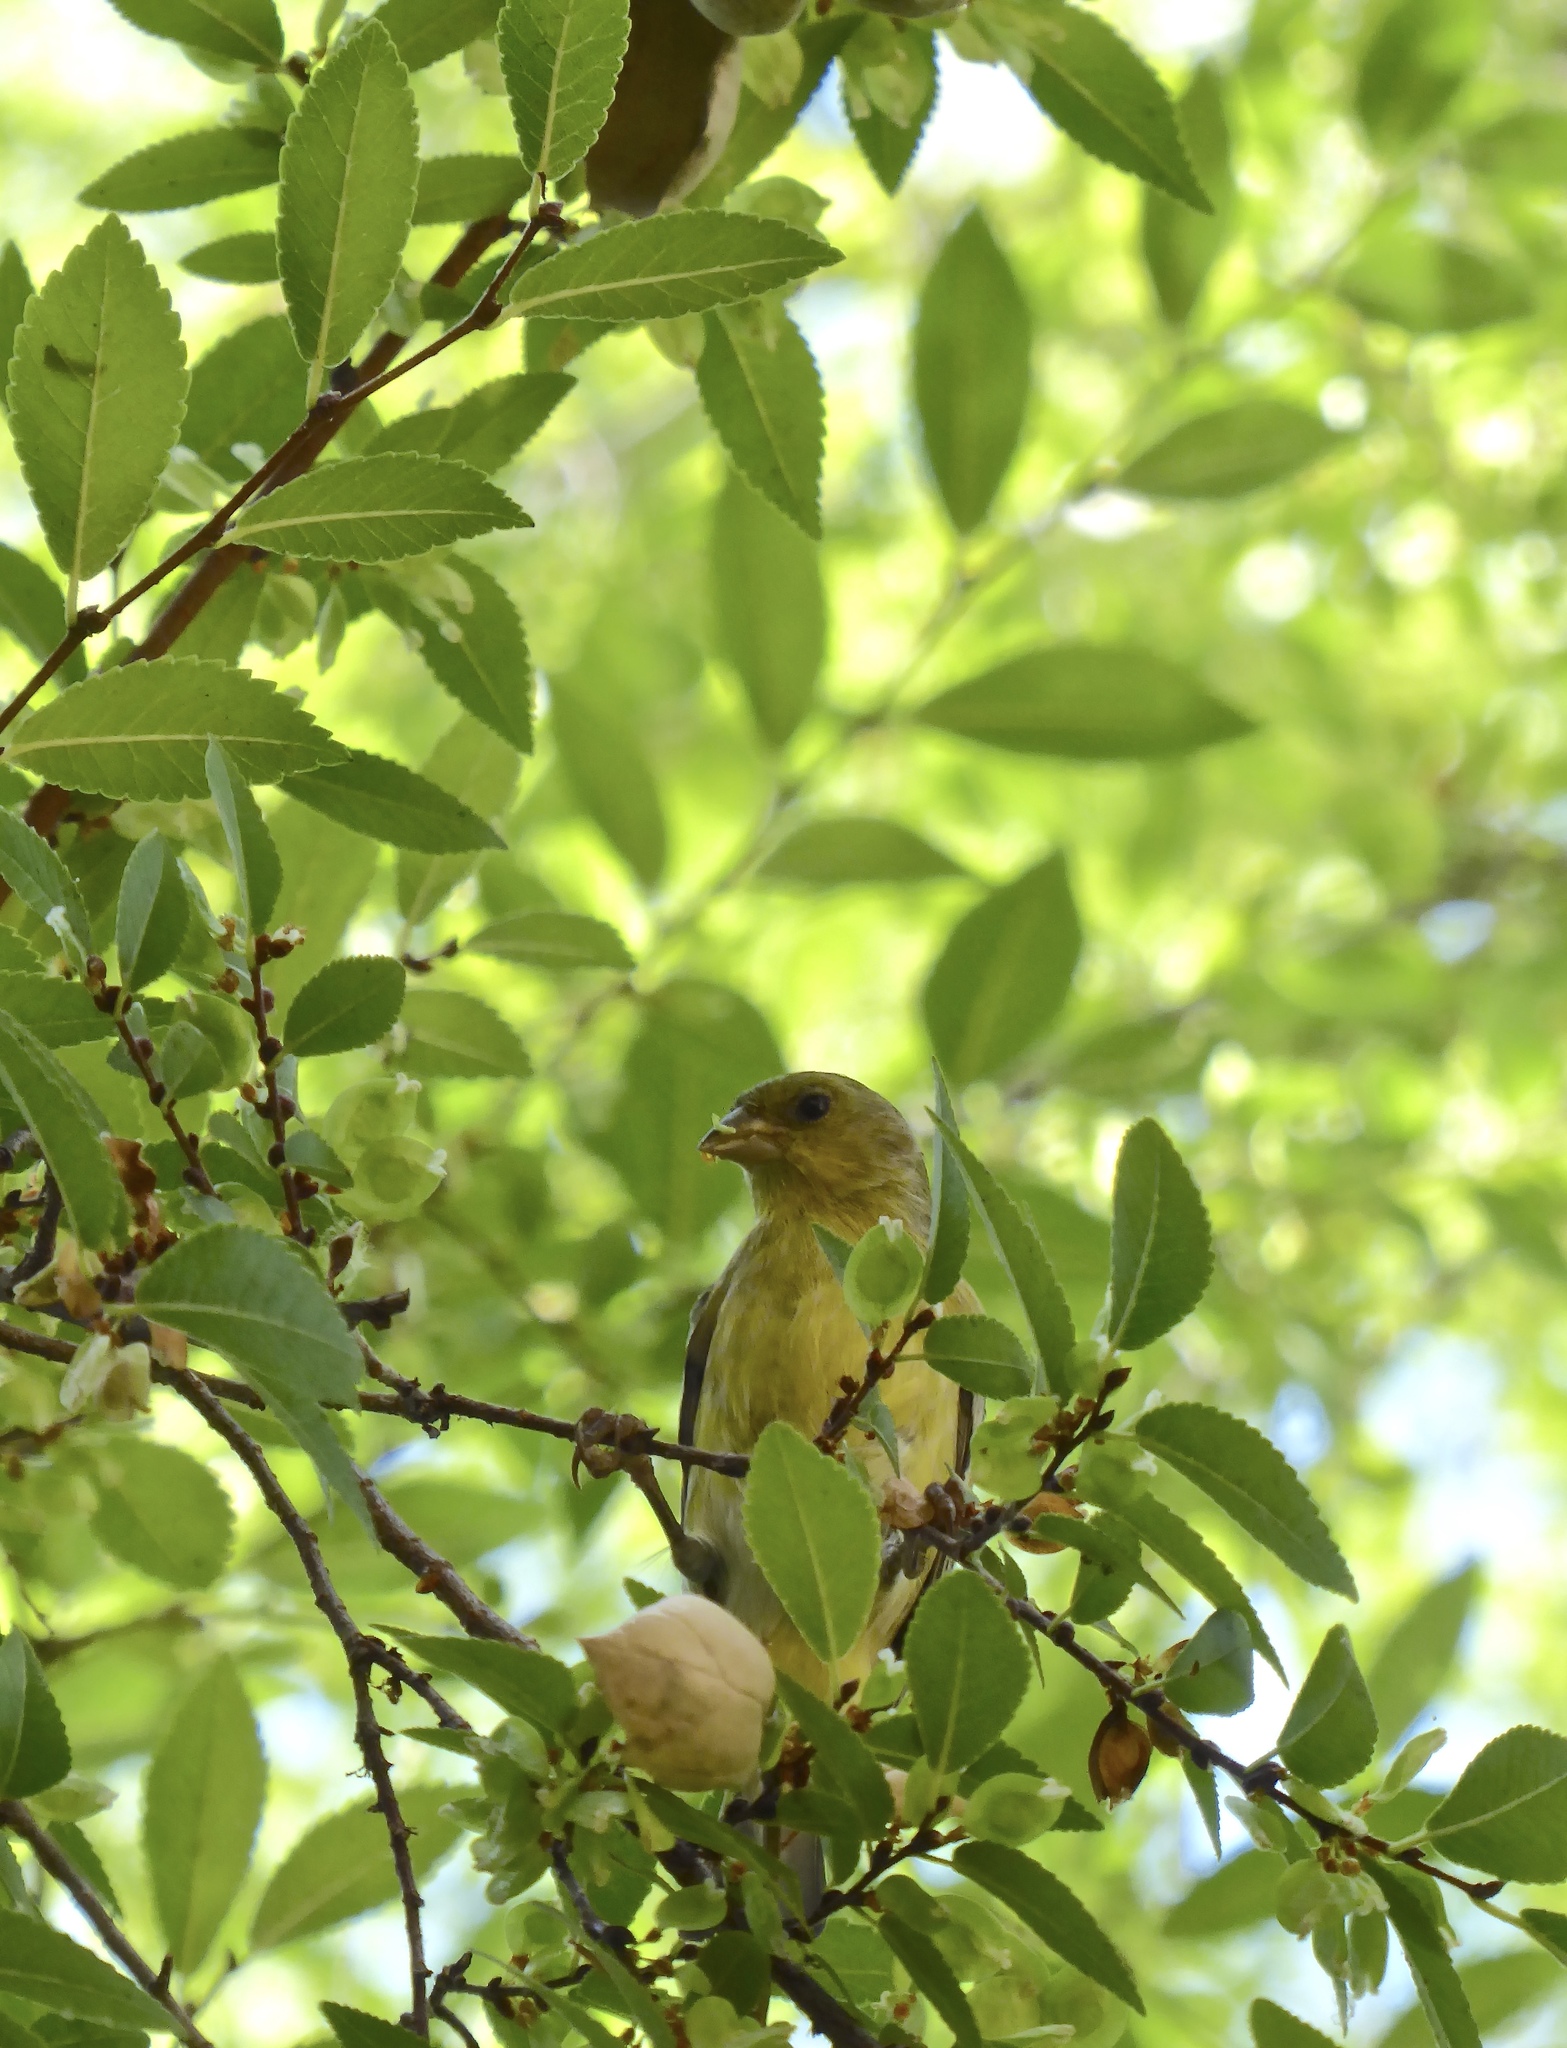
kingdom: Animalia
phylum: Chordata
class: Aves
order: Passeriformes
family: Fringillidae
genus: Spinus
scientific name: Spinus psaltria
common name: Lesser goldfinch
